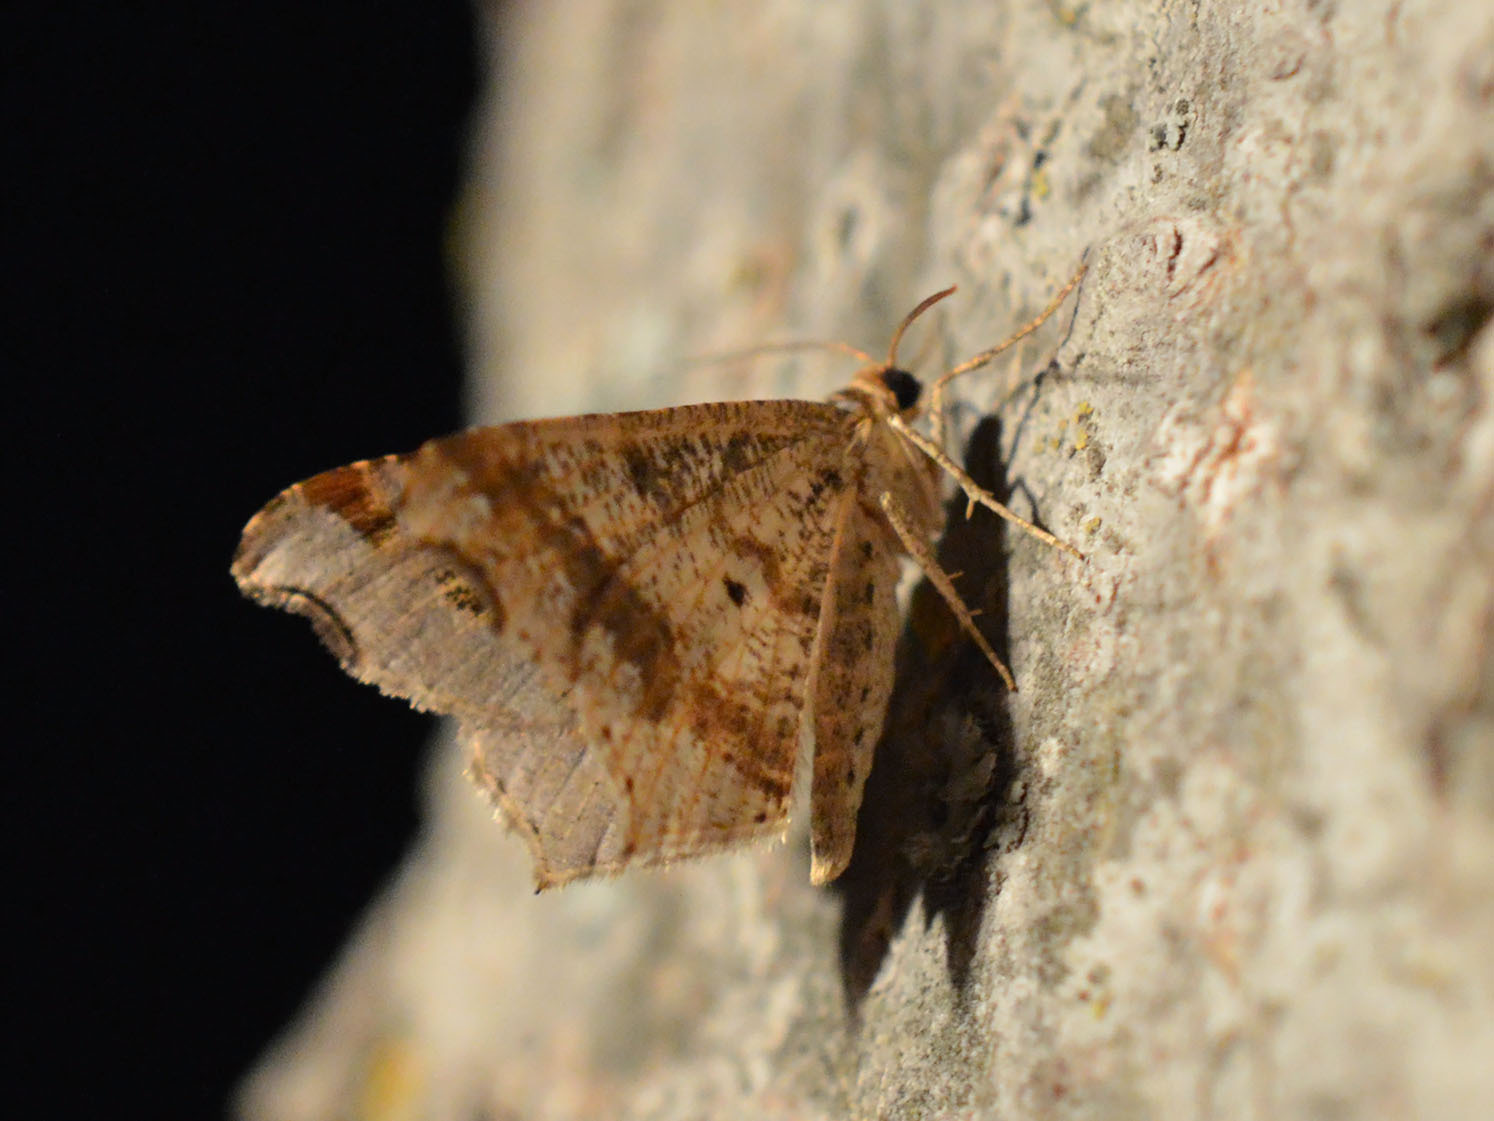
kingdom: Animalia
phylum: Arthropoda
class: Insecta
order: Lepidoptera
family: Geometridae
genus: Macaria
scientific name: Macaria alternata
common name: Sharp-angled peacock
